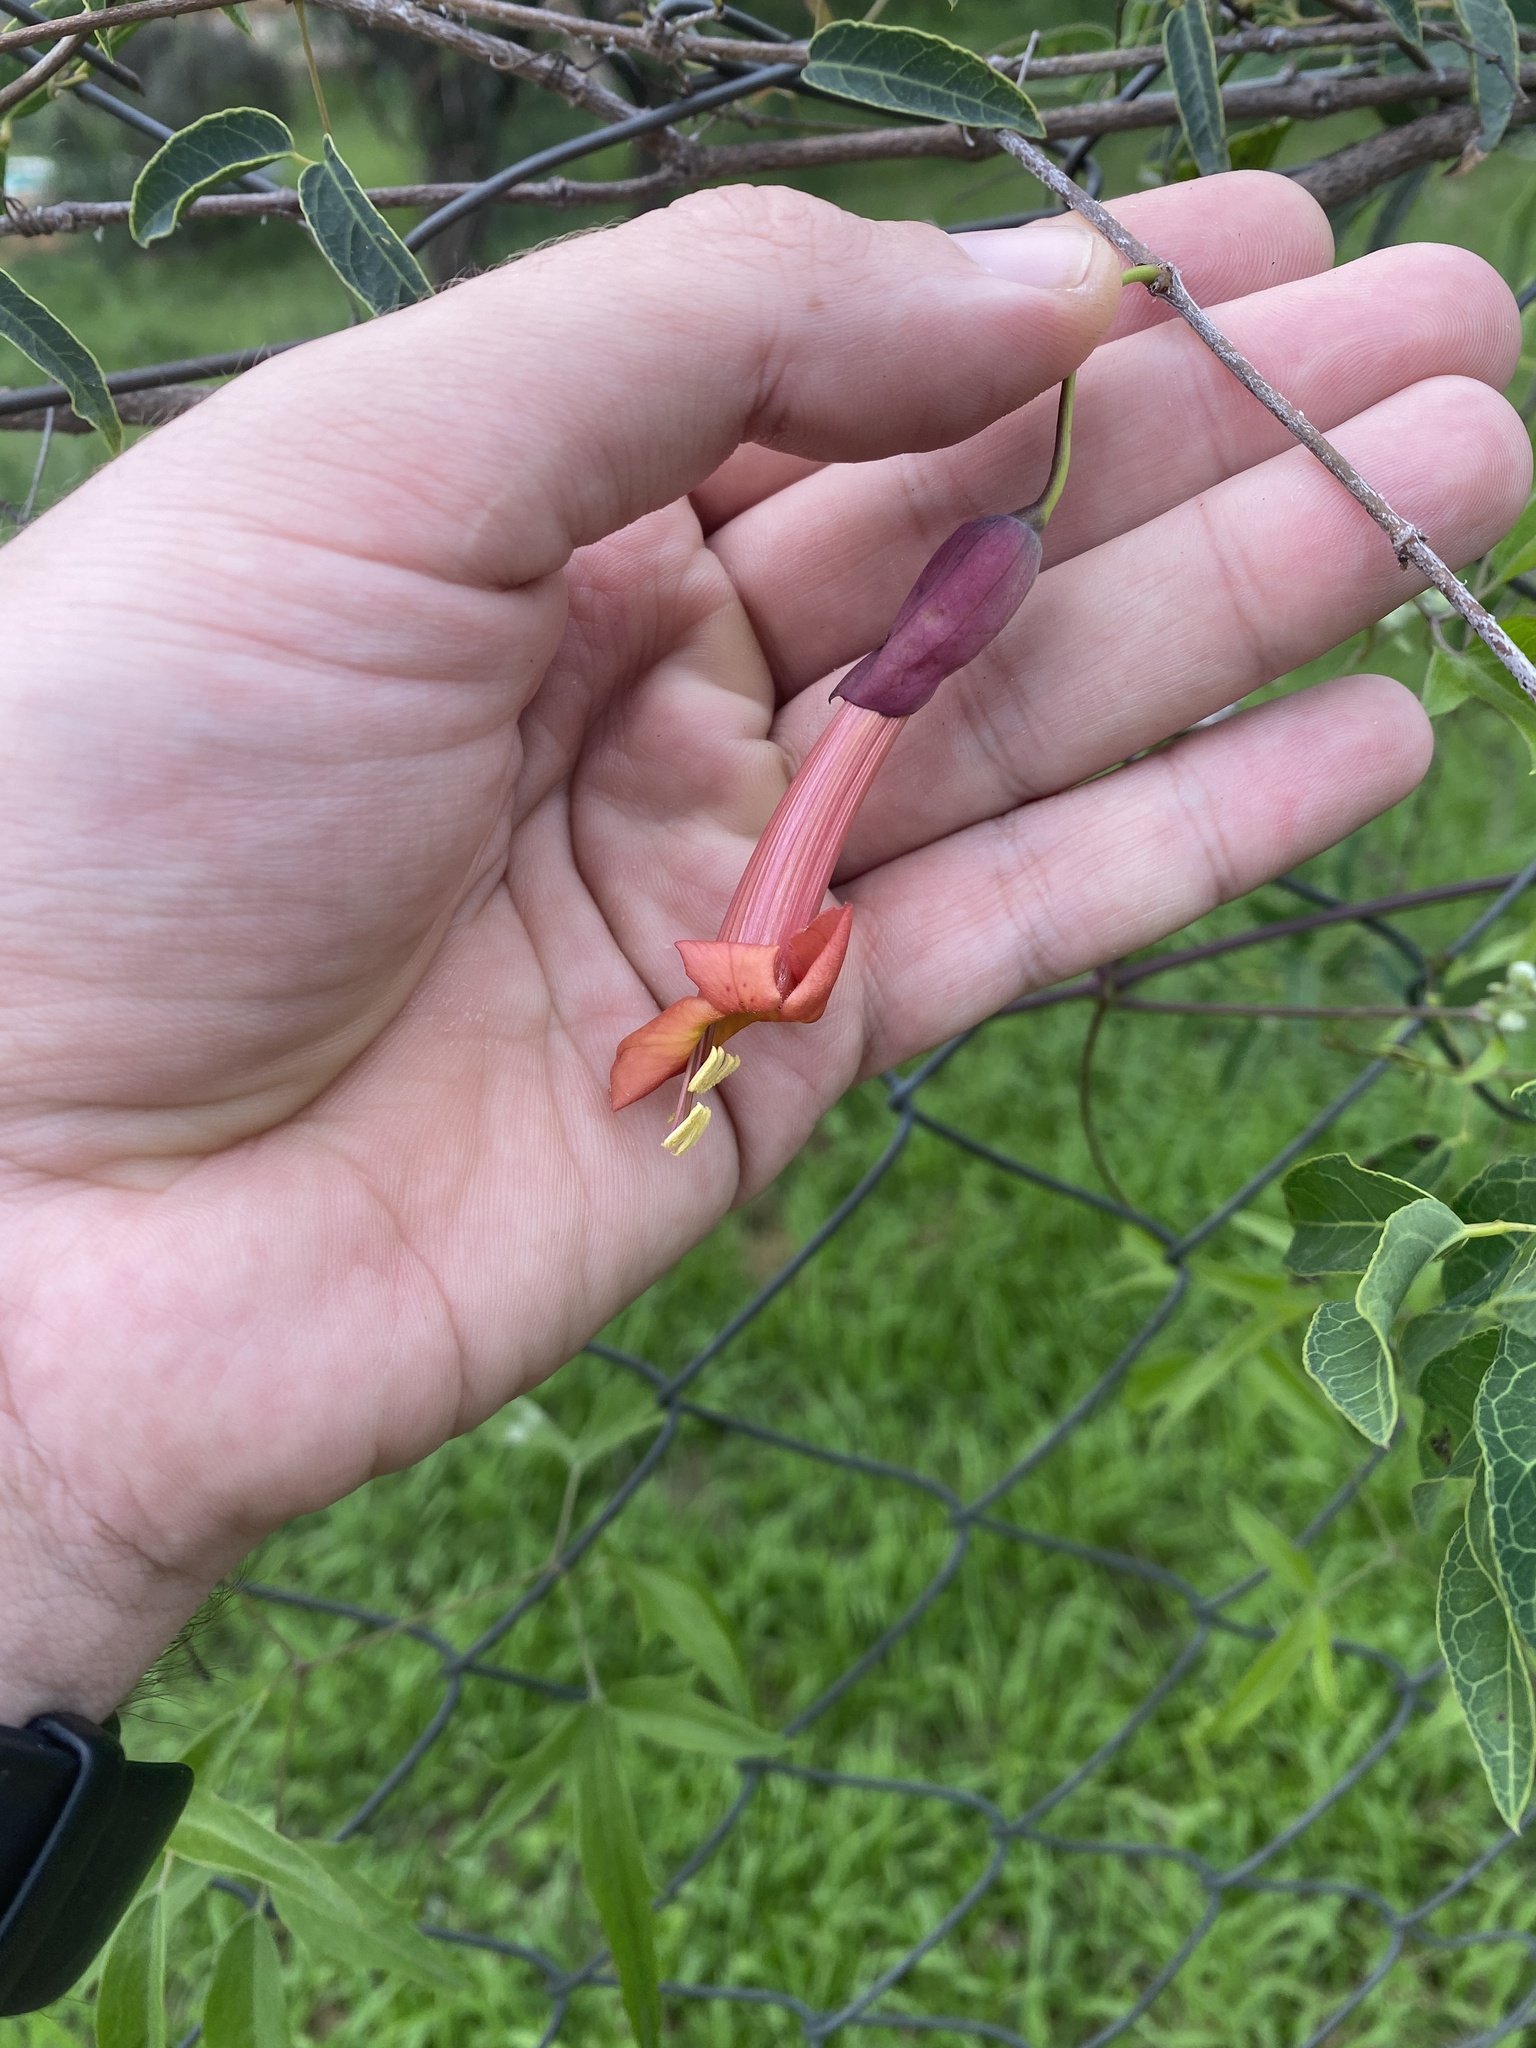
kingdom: Plantae
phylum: Tracheophyta
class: Magnoliopsida
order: Lamiales
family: Bignoniaceae
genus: Dolichandra
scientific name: Dolichandra cynanchoides
